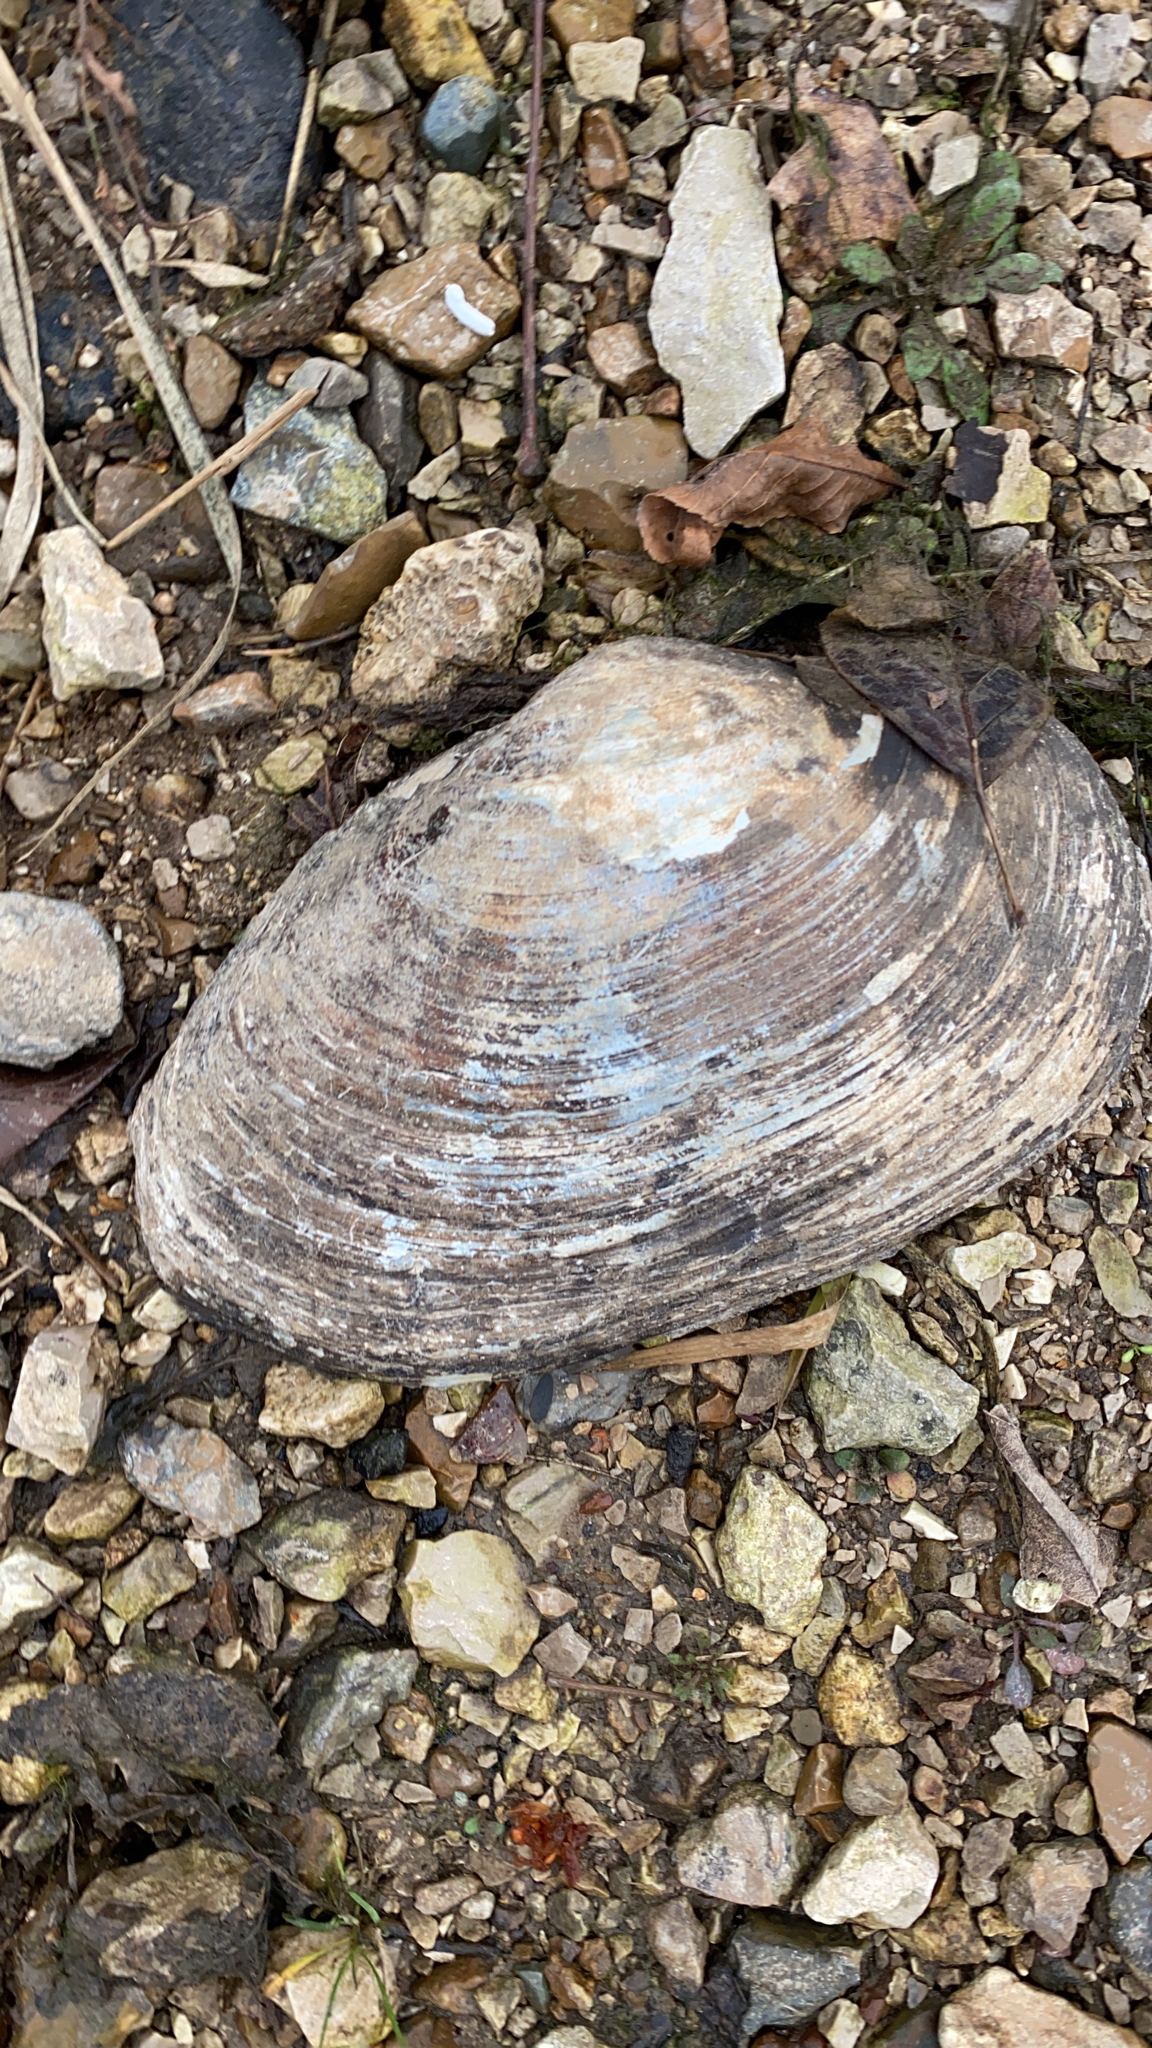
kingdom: Animalia
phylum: Mollusca
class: Bivalvia
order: Unionida
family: Unionidae
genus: Pyganodon
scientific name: Pyganodon grandis
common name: Giant floater
